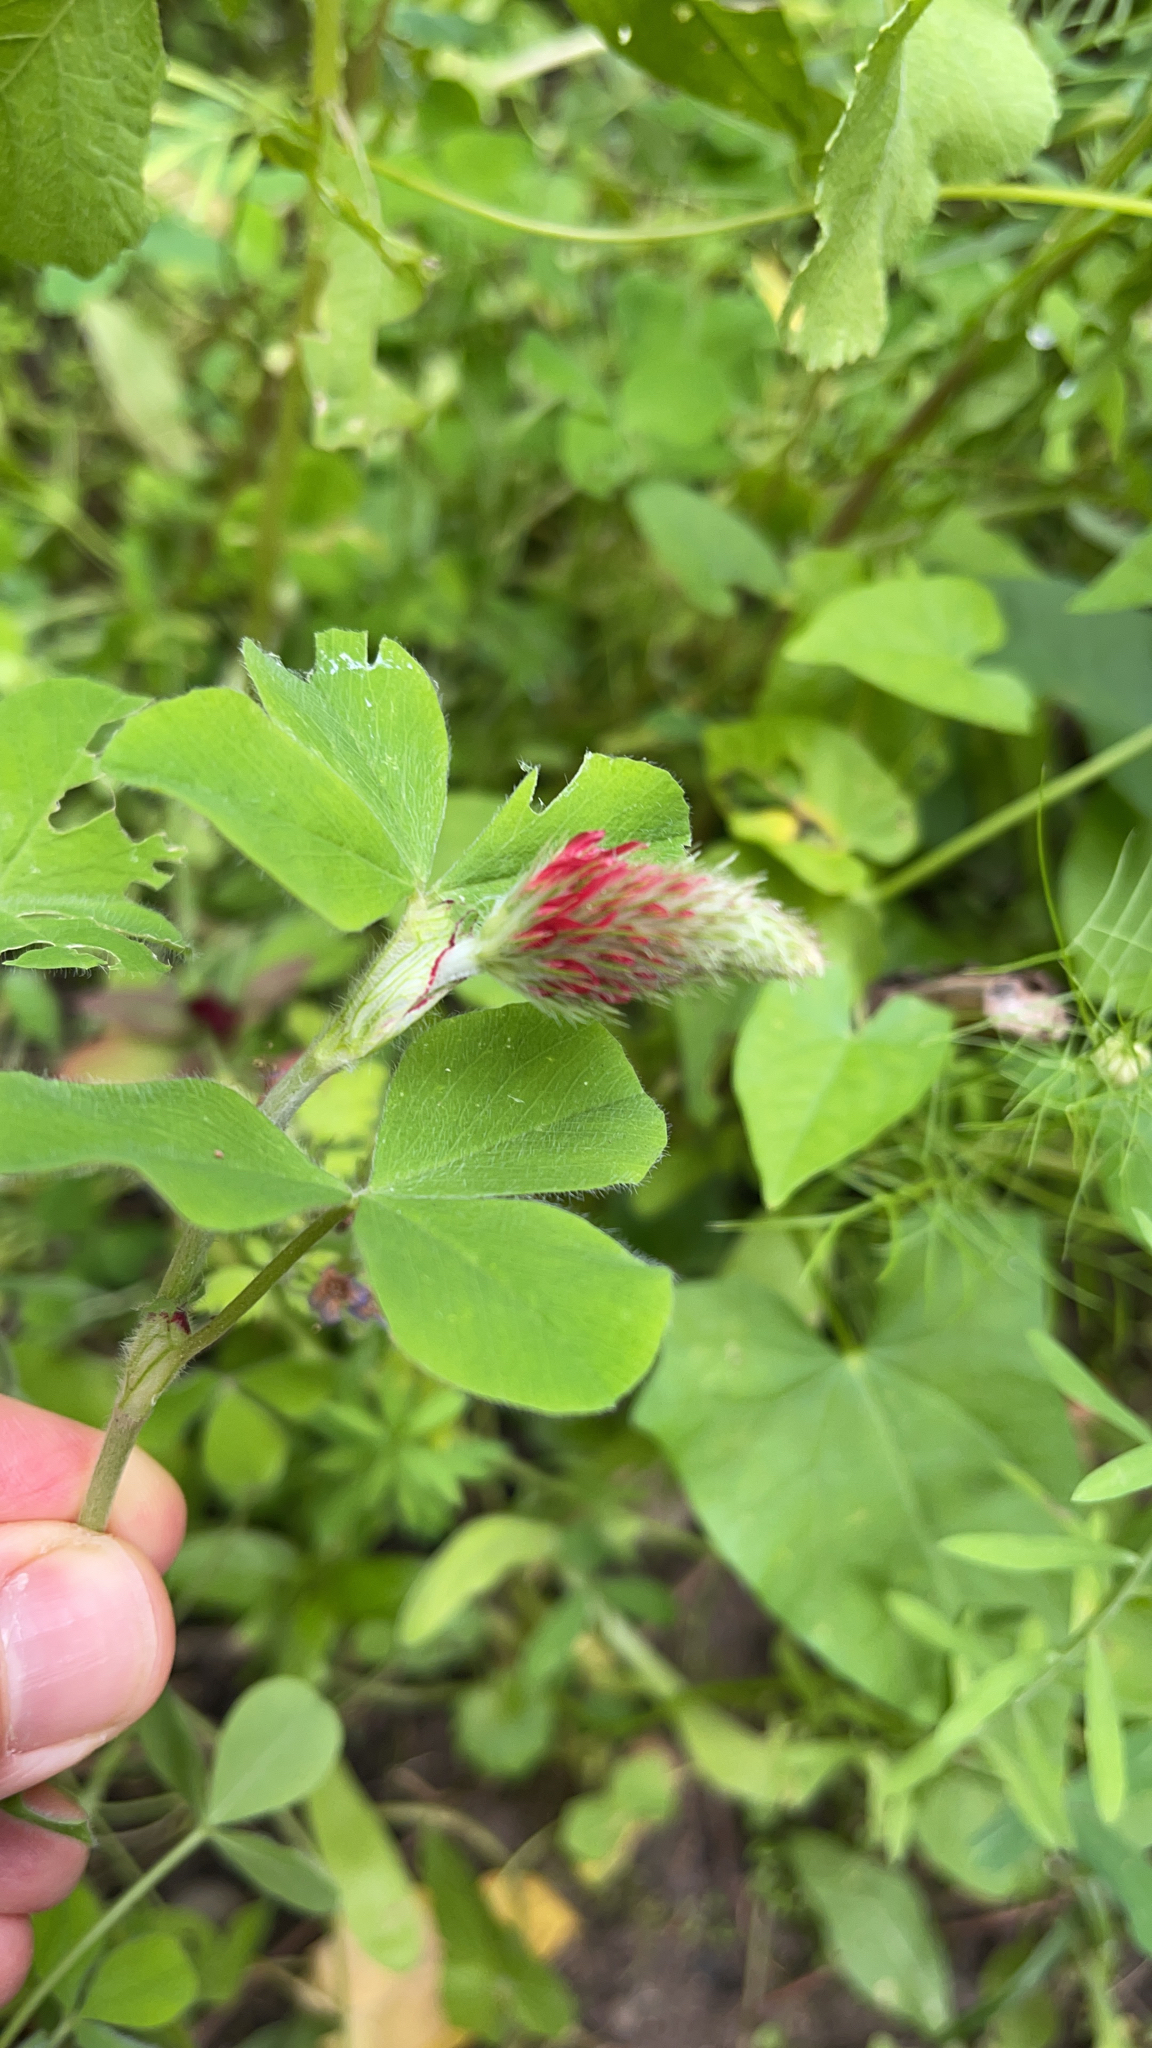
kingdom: Plantae
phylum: Tracheophyta
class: Magnoliopsida
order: Fabales
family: Fabaceae
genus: Trifolium
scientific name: Trifolium incarnatum
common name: Crimson clover
